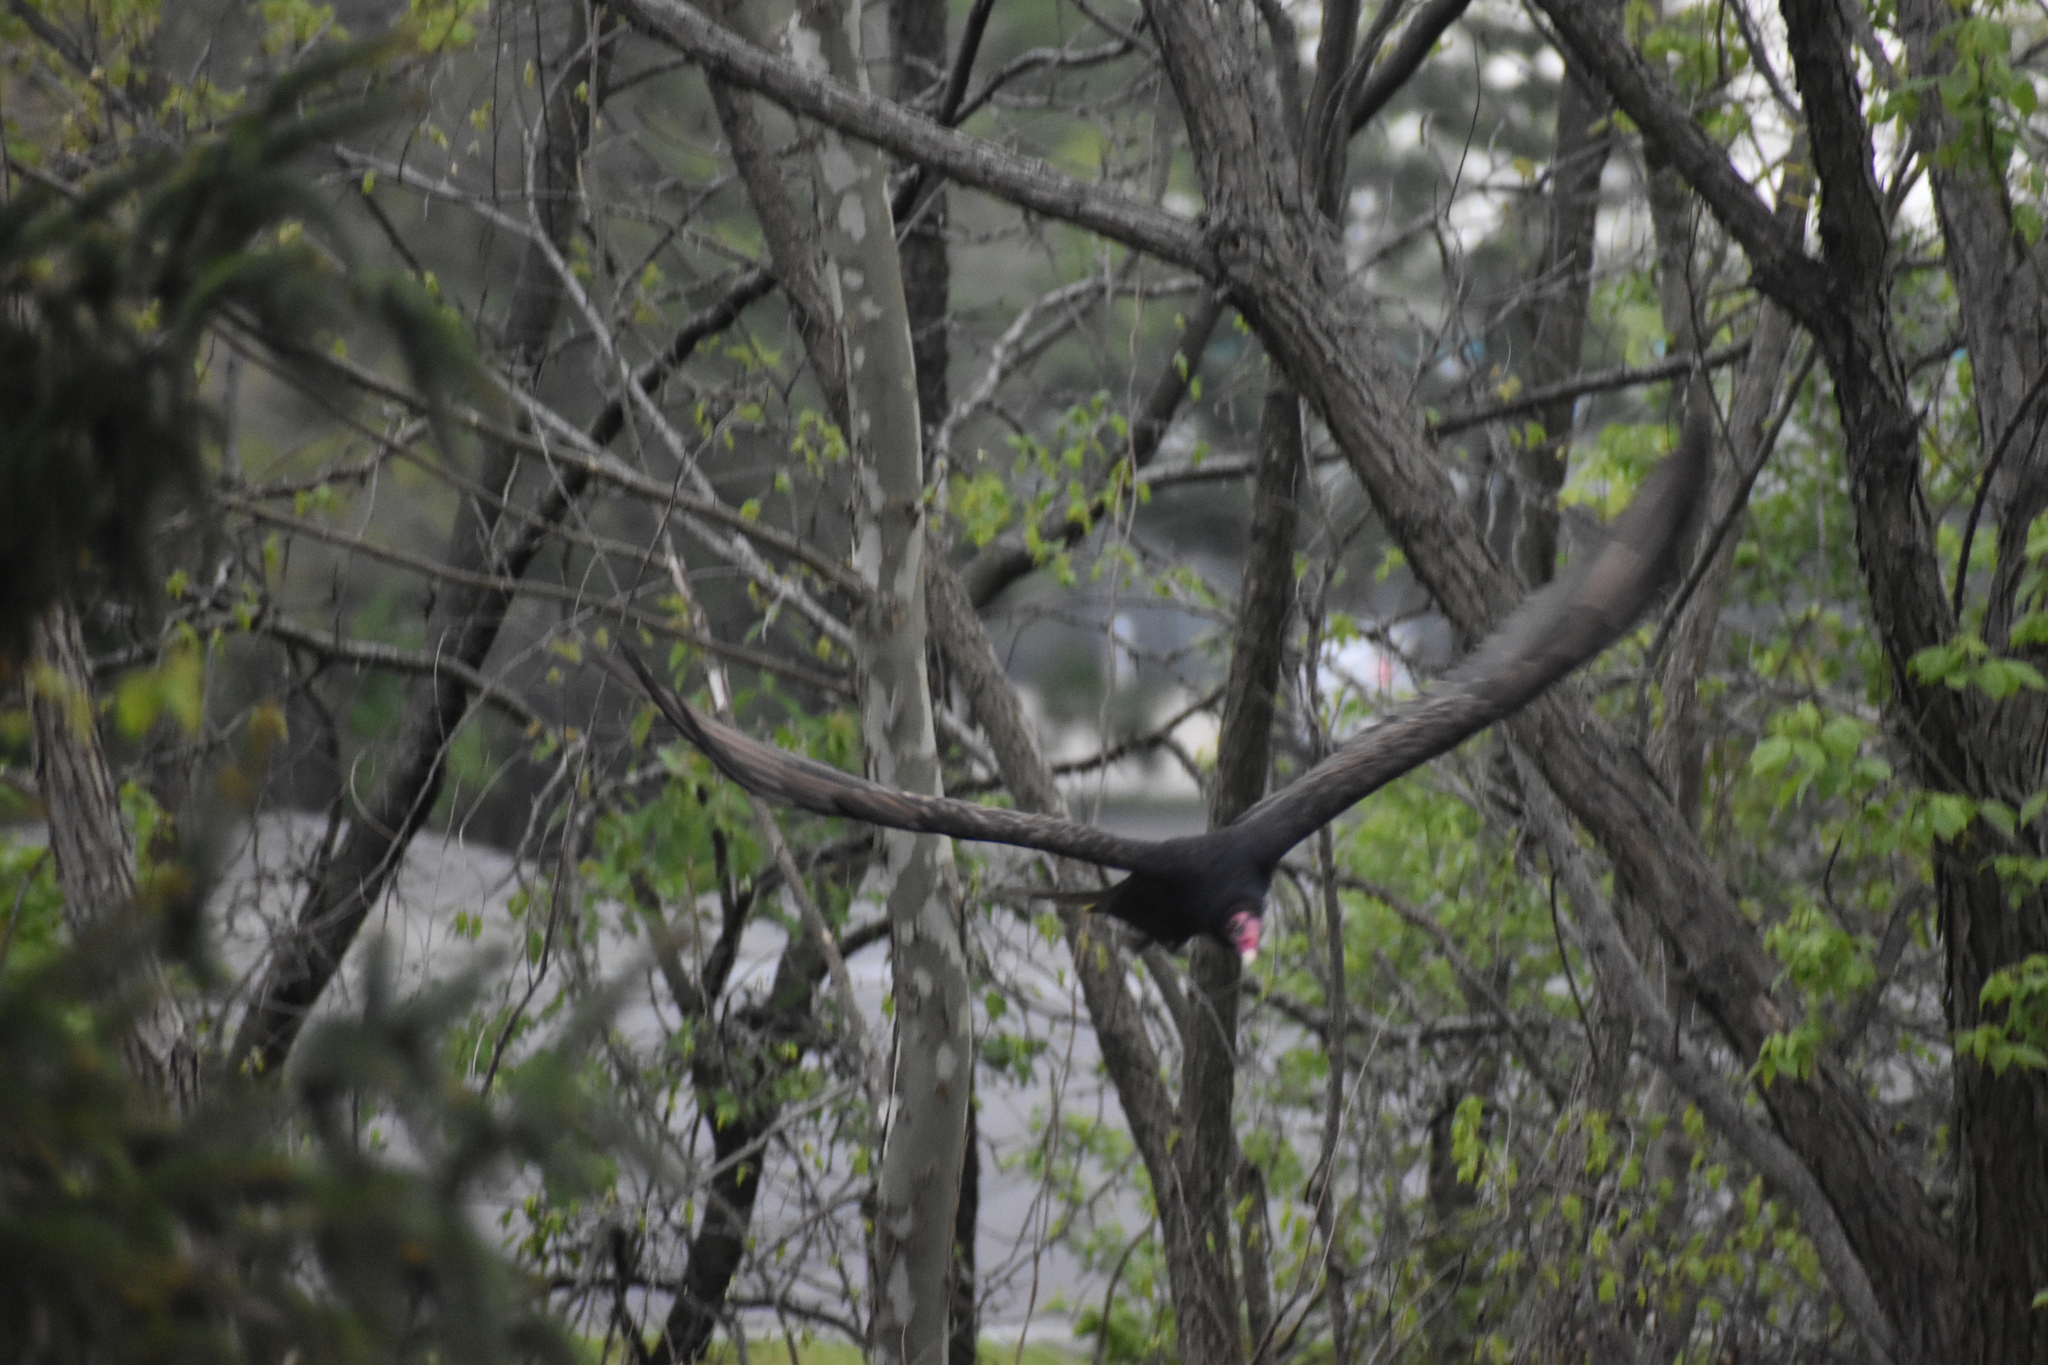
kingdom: Animalia
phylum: Chordata
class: Aves
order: Accipitriformes
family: Cathartidae
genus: Cathartes
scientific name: Cathartes aura
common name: Turkey vulture
